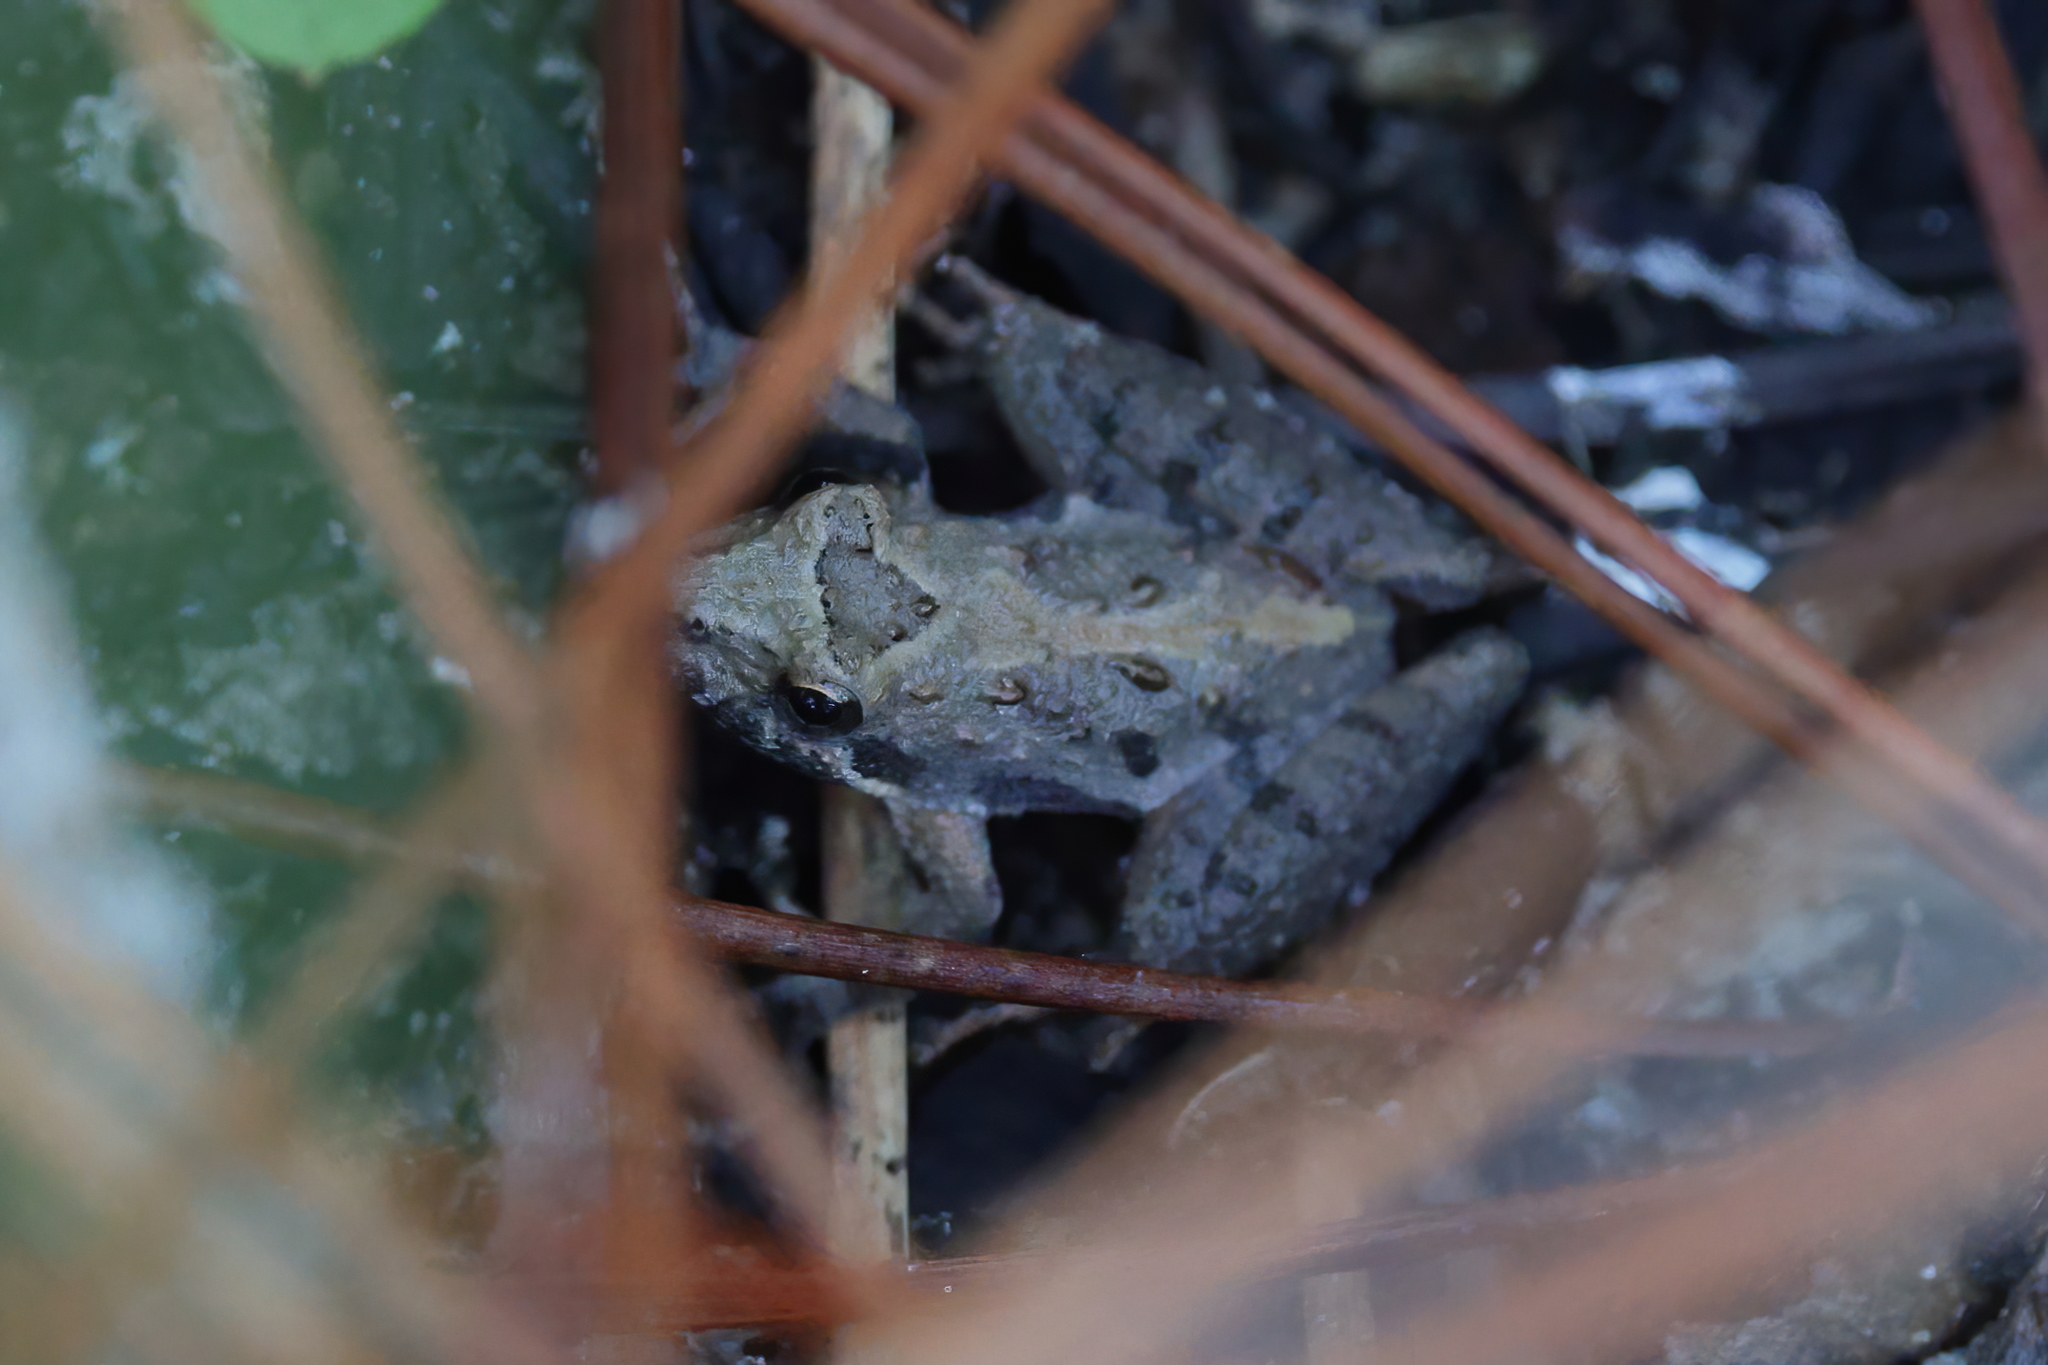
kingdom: Animalia
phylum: Chordata
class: Amphibia
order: Anura
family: Hylidae
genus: Acris
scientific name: Acris gryllus
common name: Southern cricket frog
